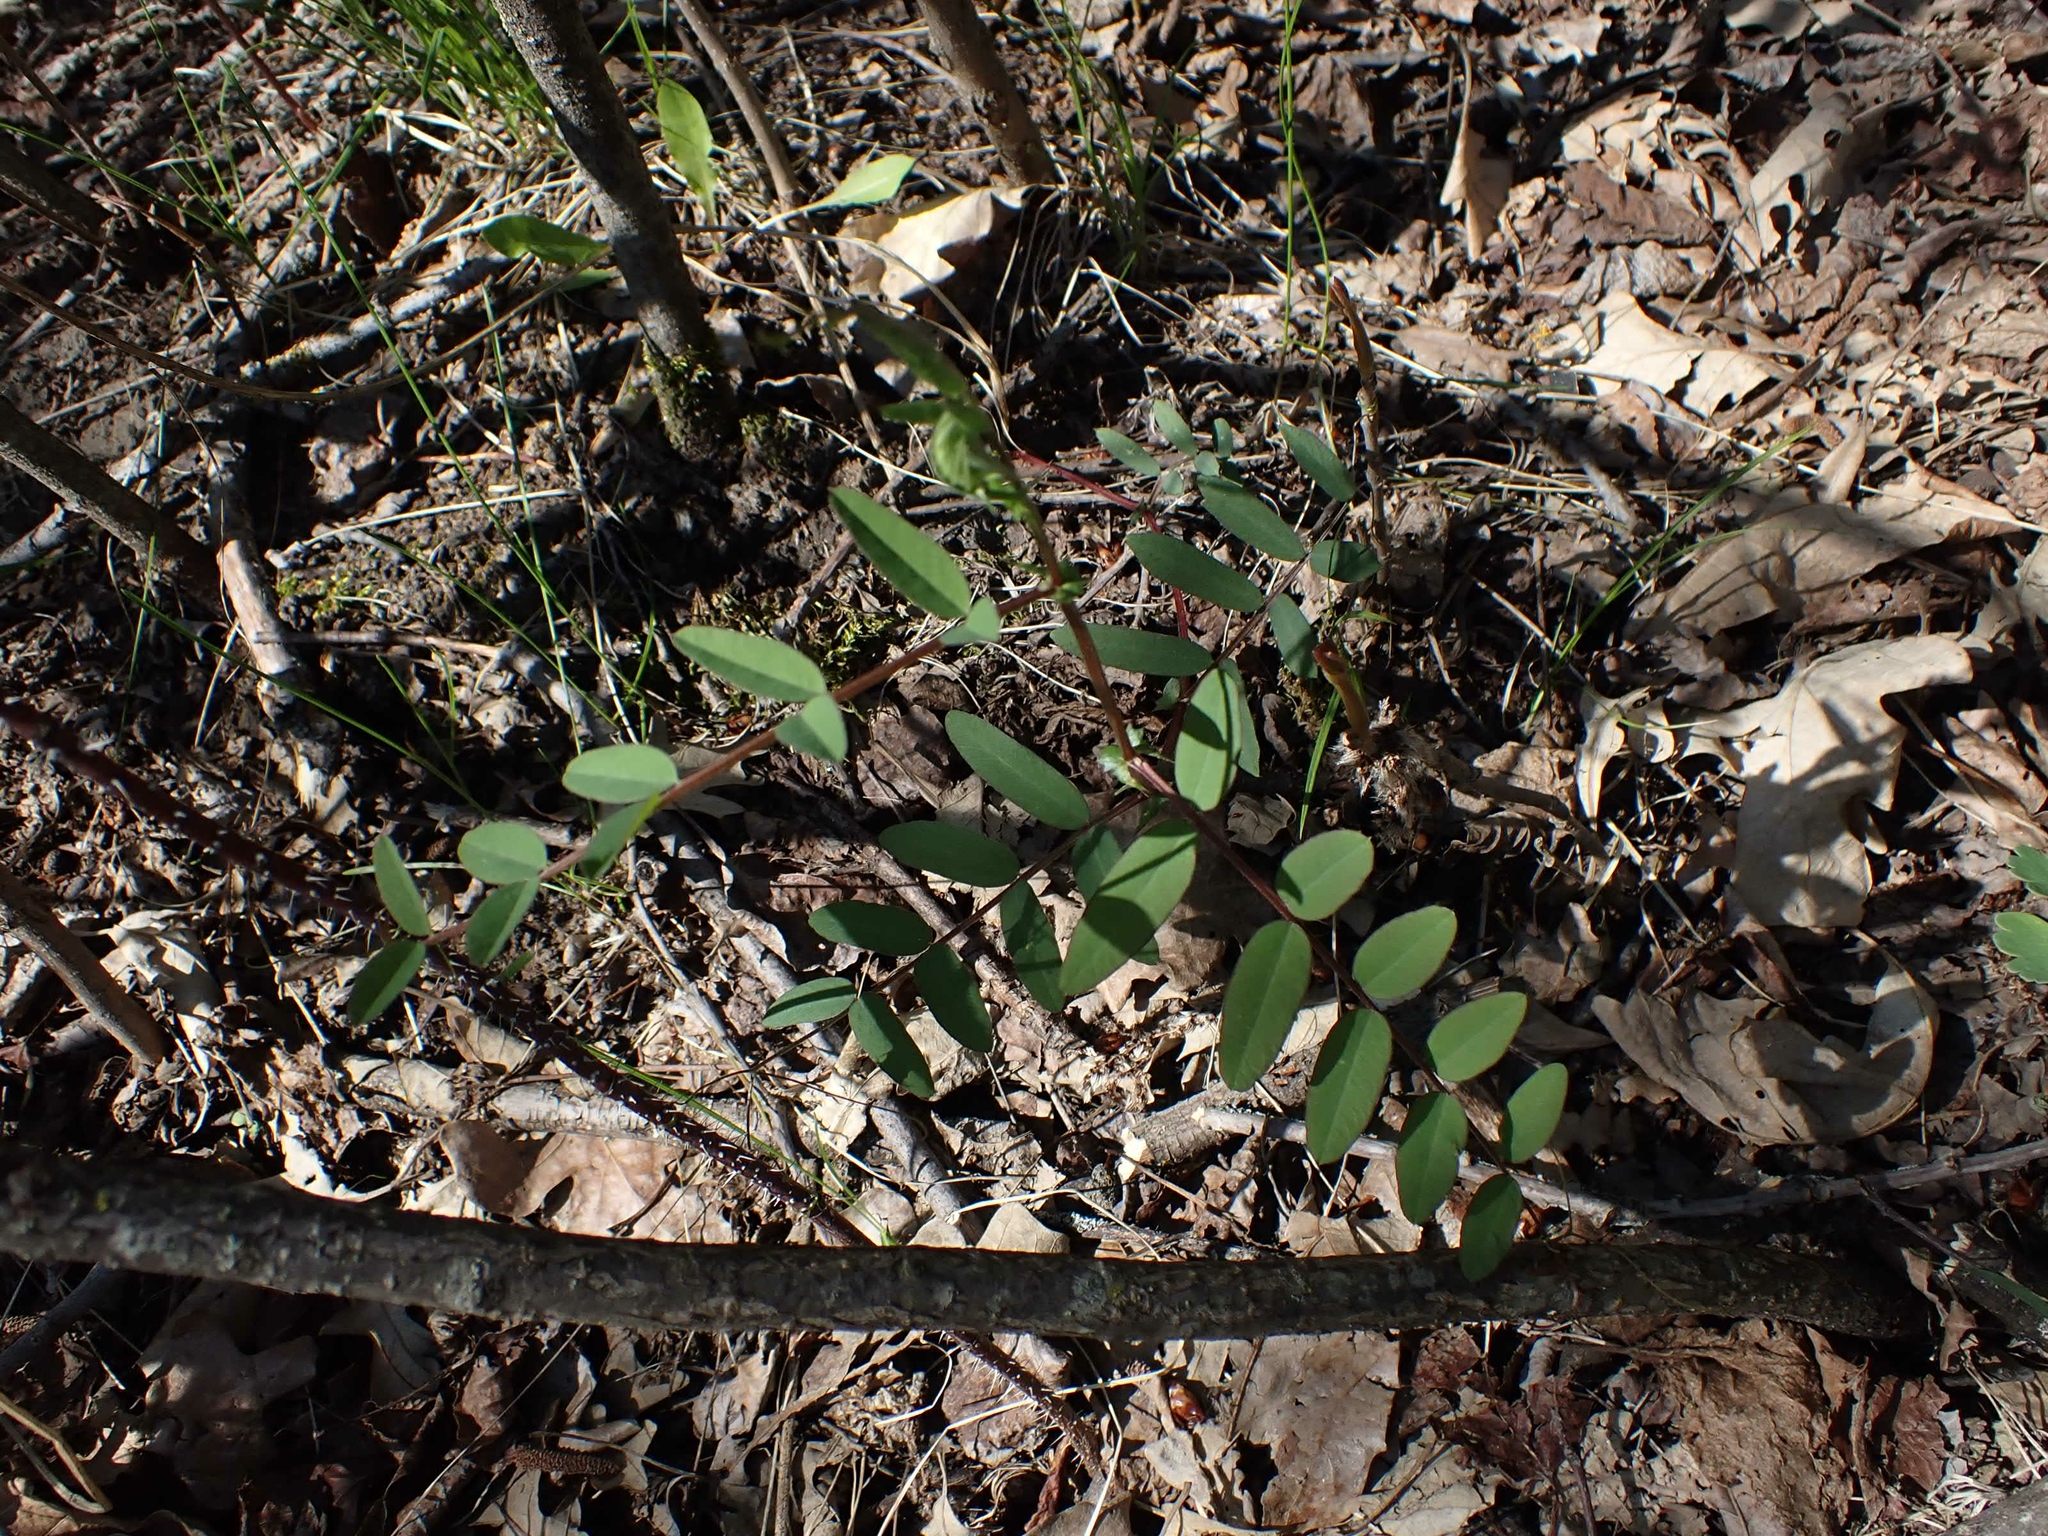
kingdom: Plantae
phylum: Tracheophyta
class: Magnoliopsida
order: Fabales
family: Fabaceae
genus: Vicia
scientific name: Vicia americana
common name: American vetch
